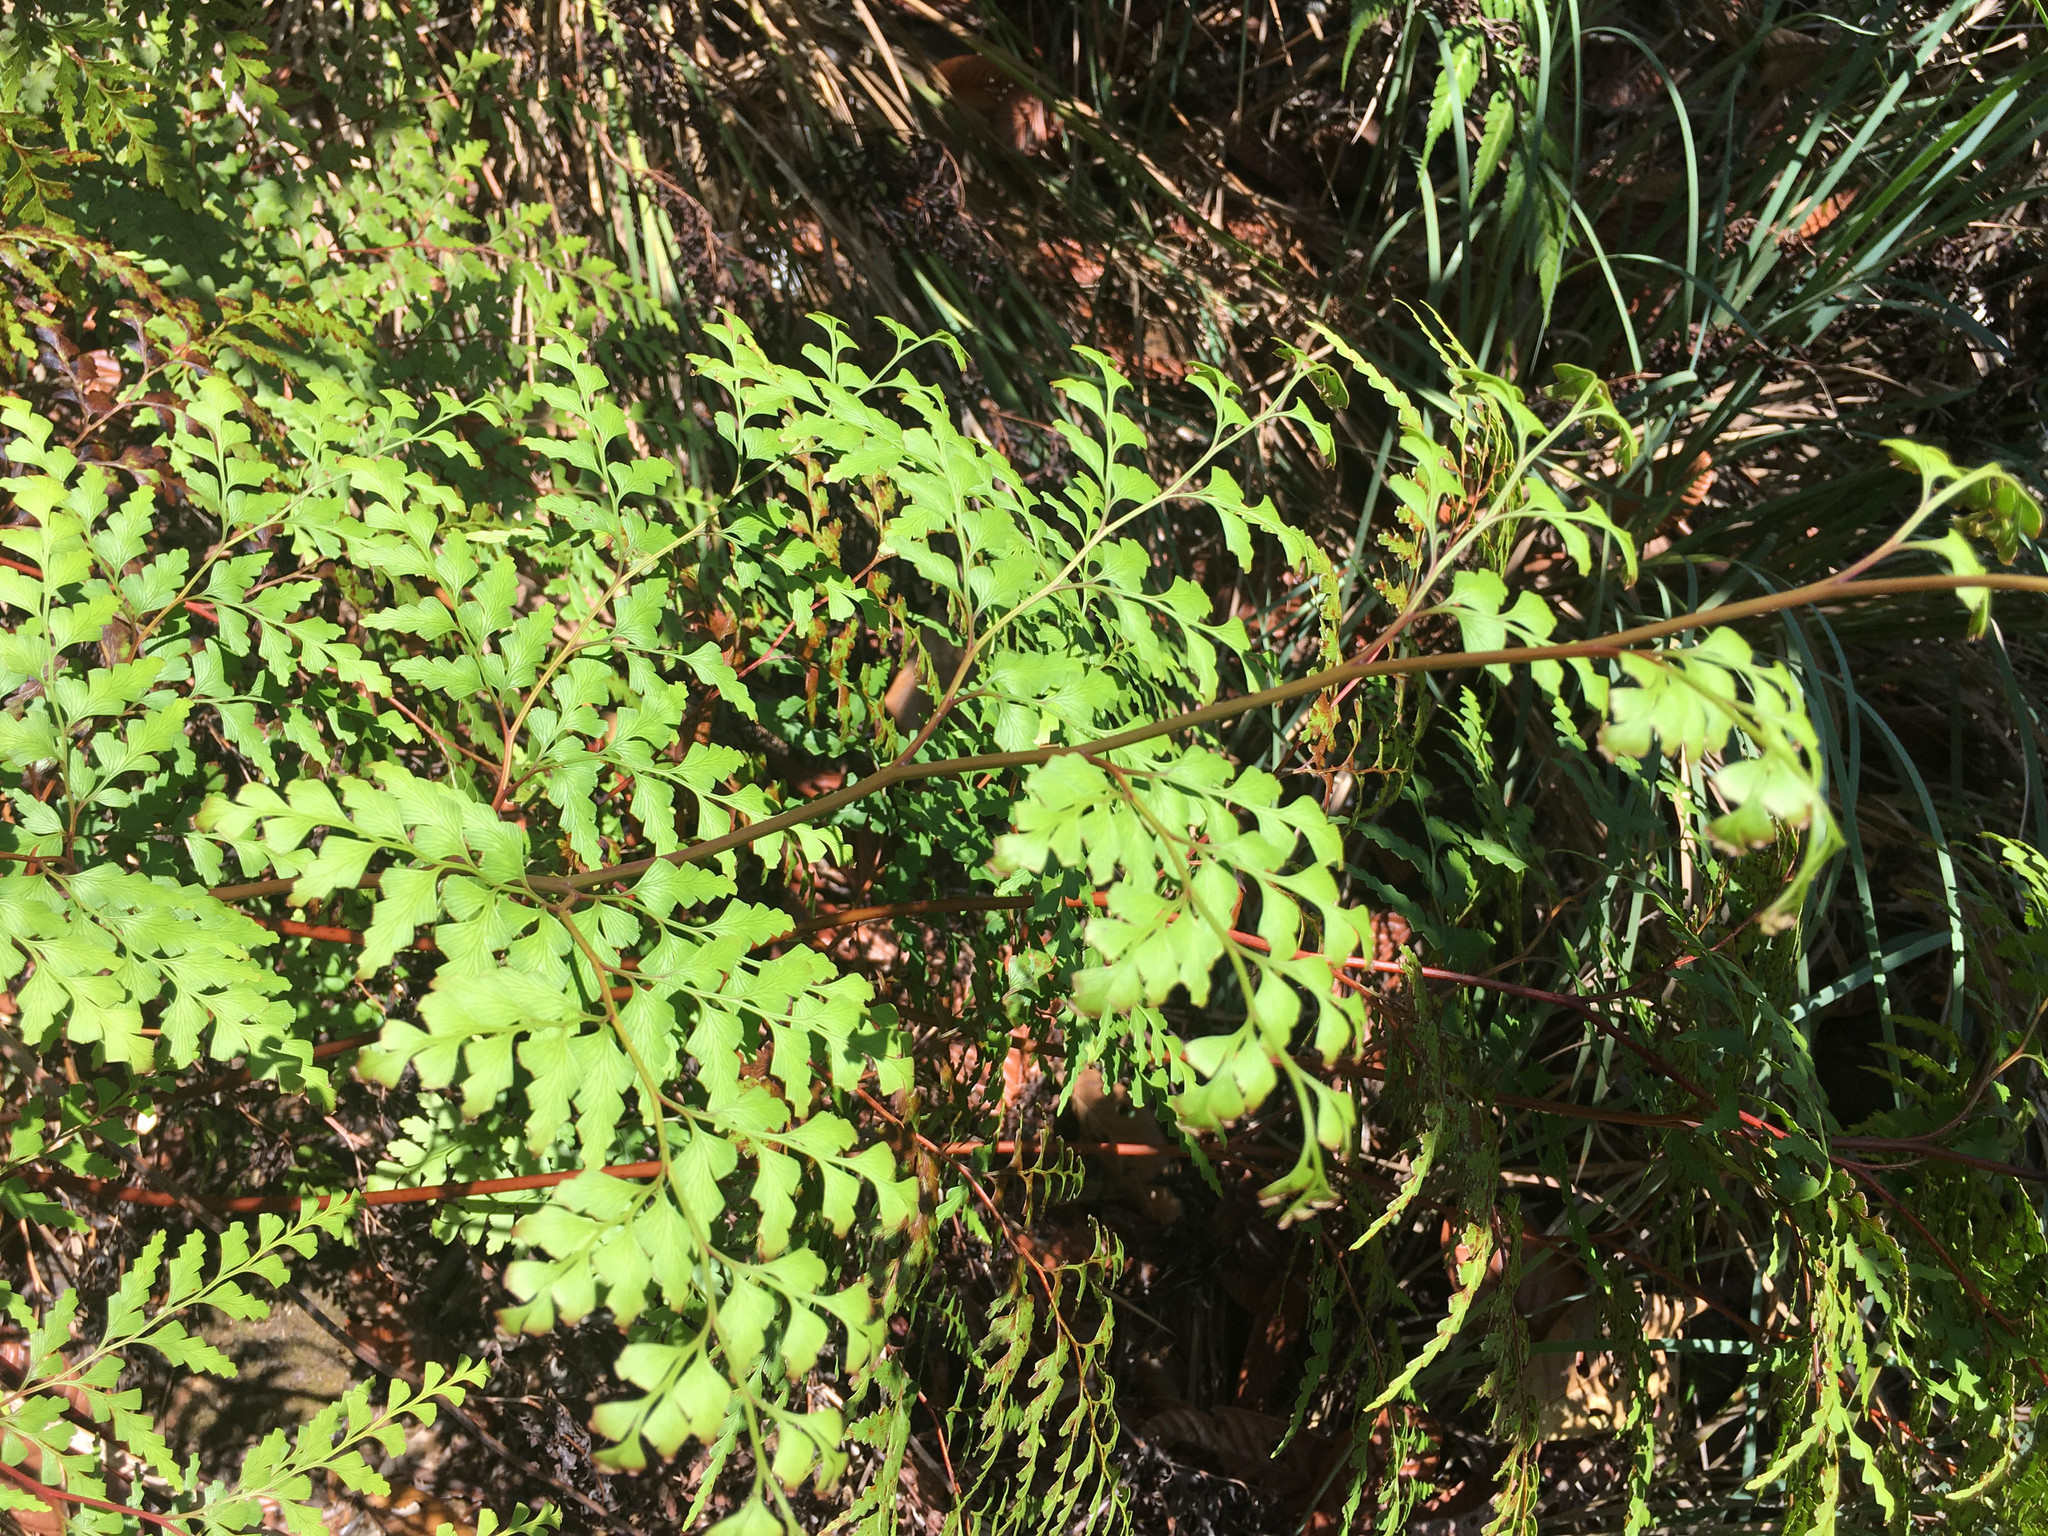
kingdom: Plantae
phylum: Tracheophyta
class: Polypodiopsida
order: Polypodiales
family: Lindsaeaceae
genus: Odontosoria
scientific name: Odontosoria deltoidea
